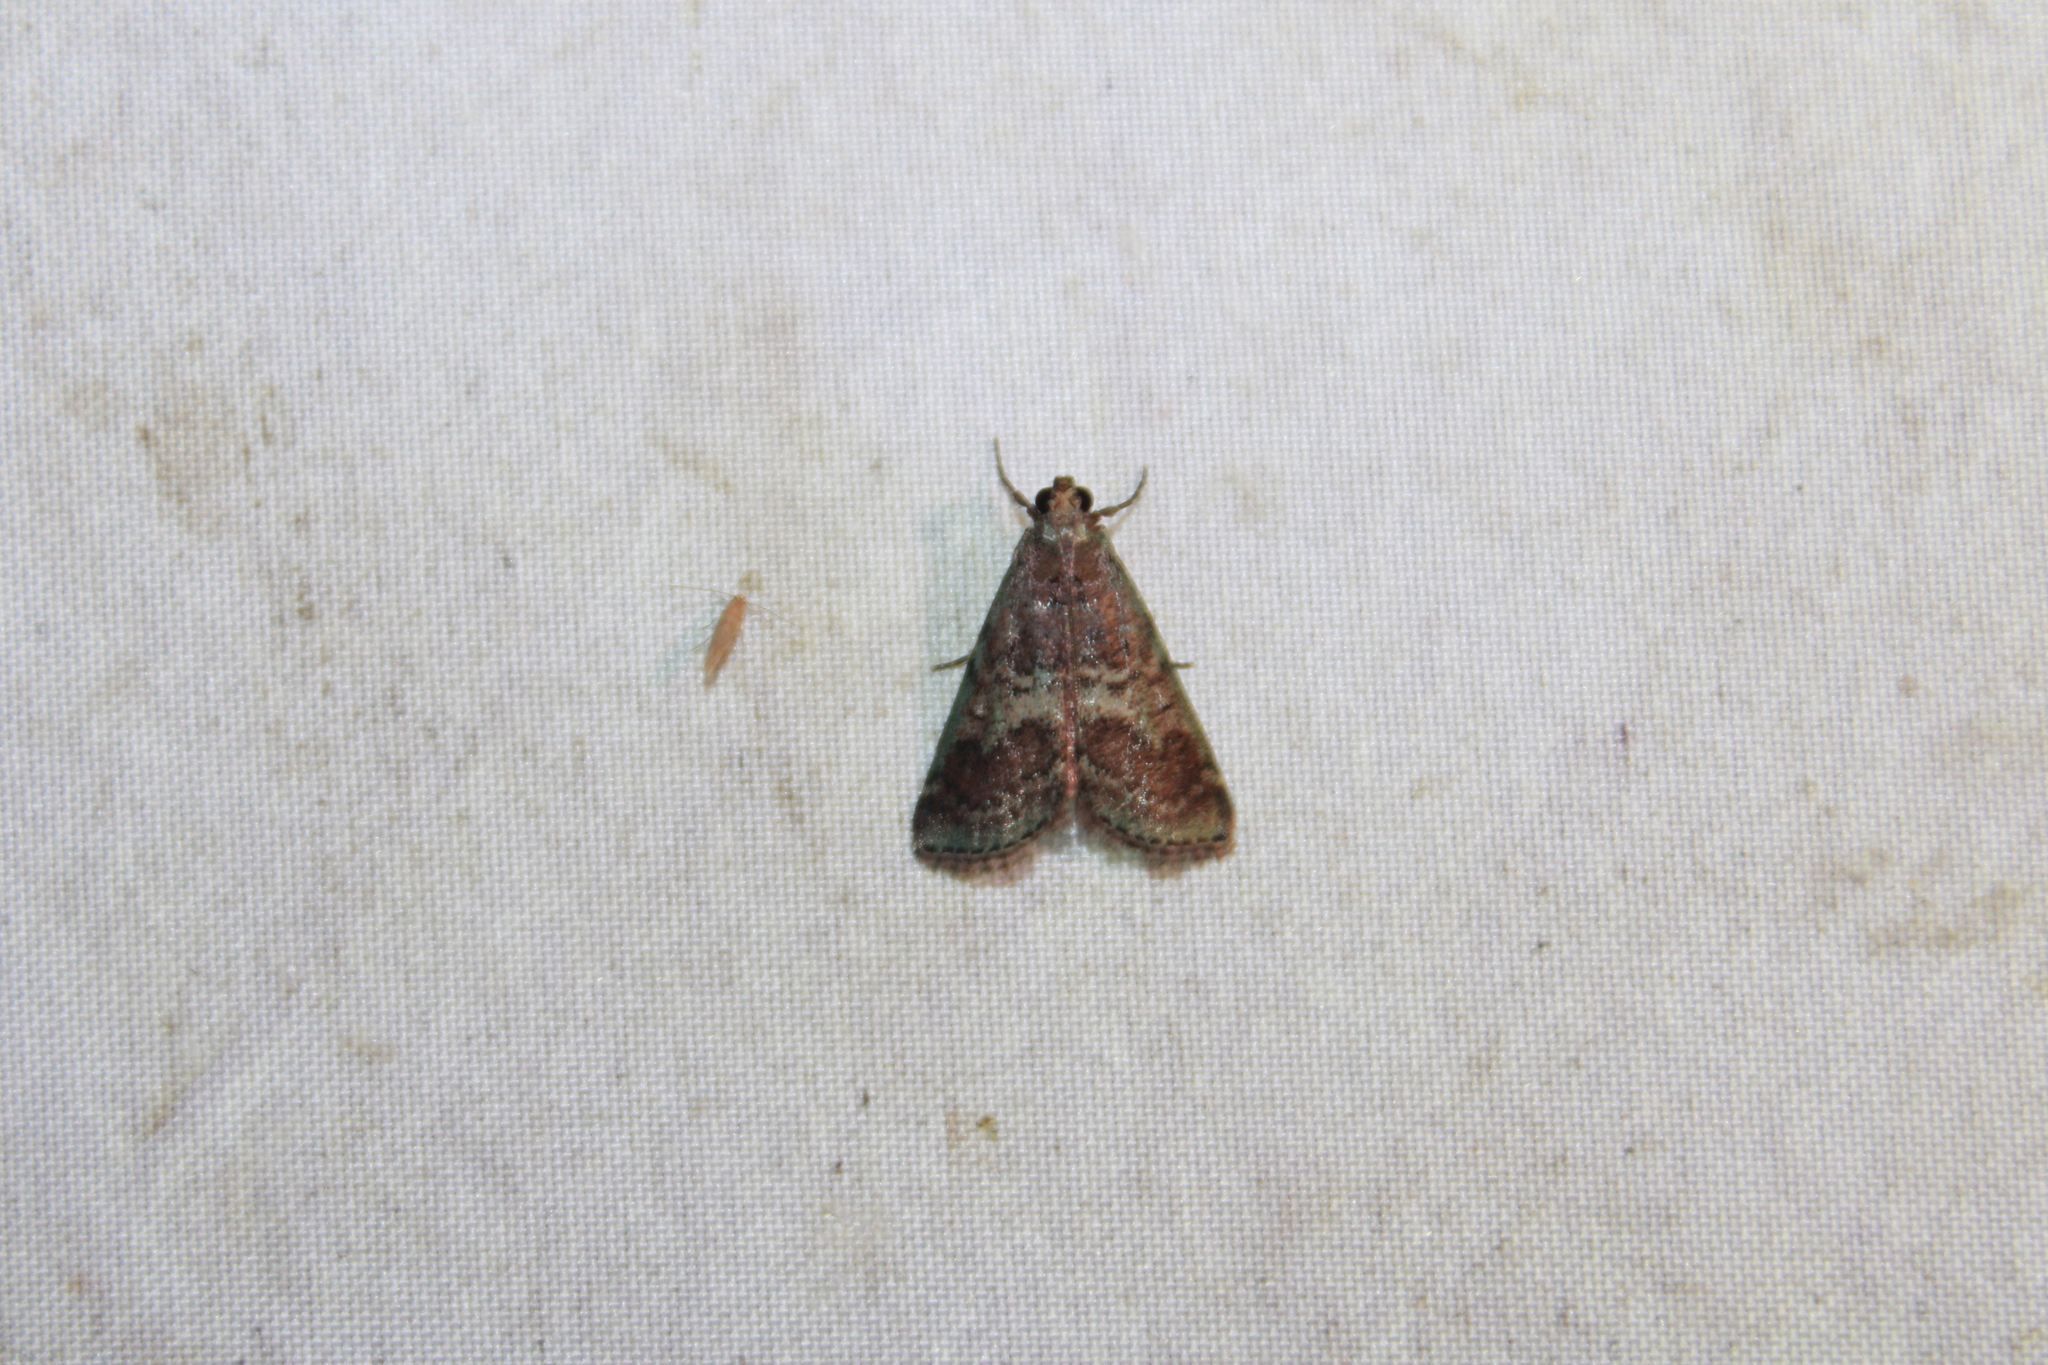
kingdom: Animalia
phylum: Arthropoda
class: Insecta
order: Lepidoptera
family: Pyralidae
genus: Deuterollyta
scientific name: Deuterollyta majuscula
